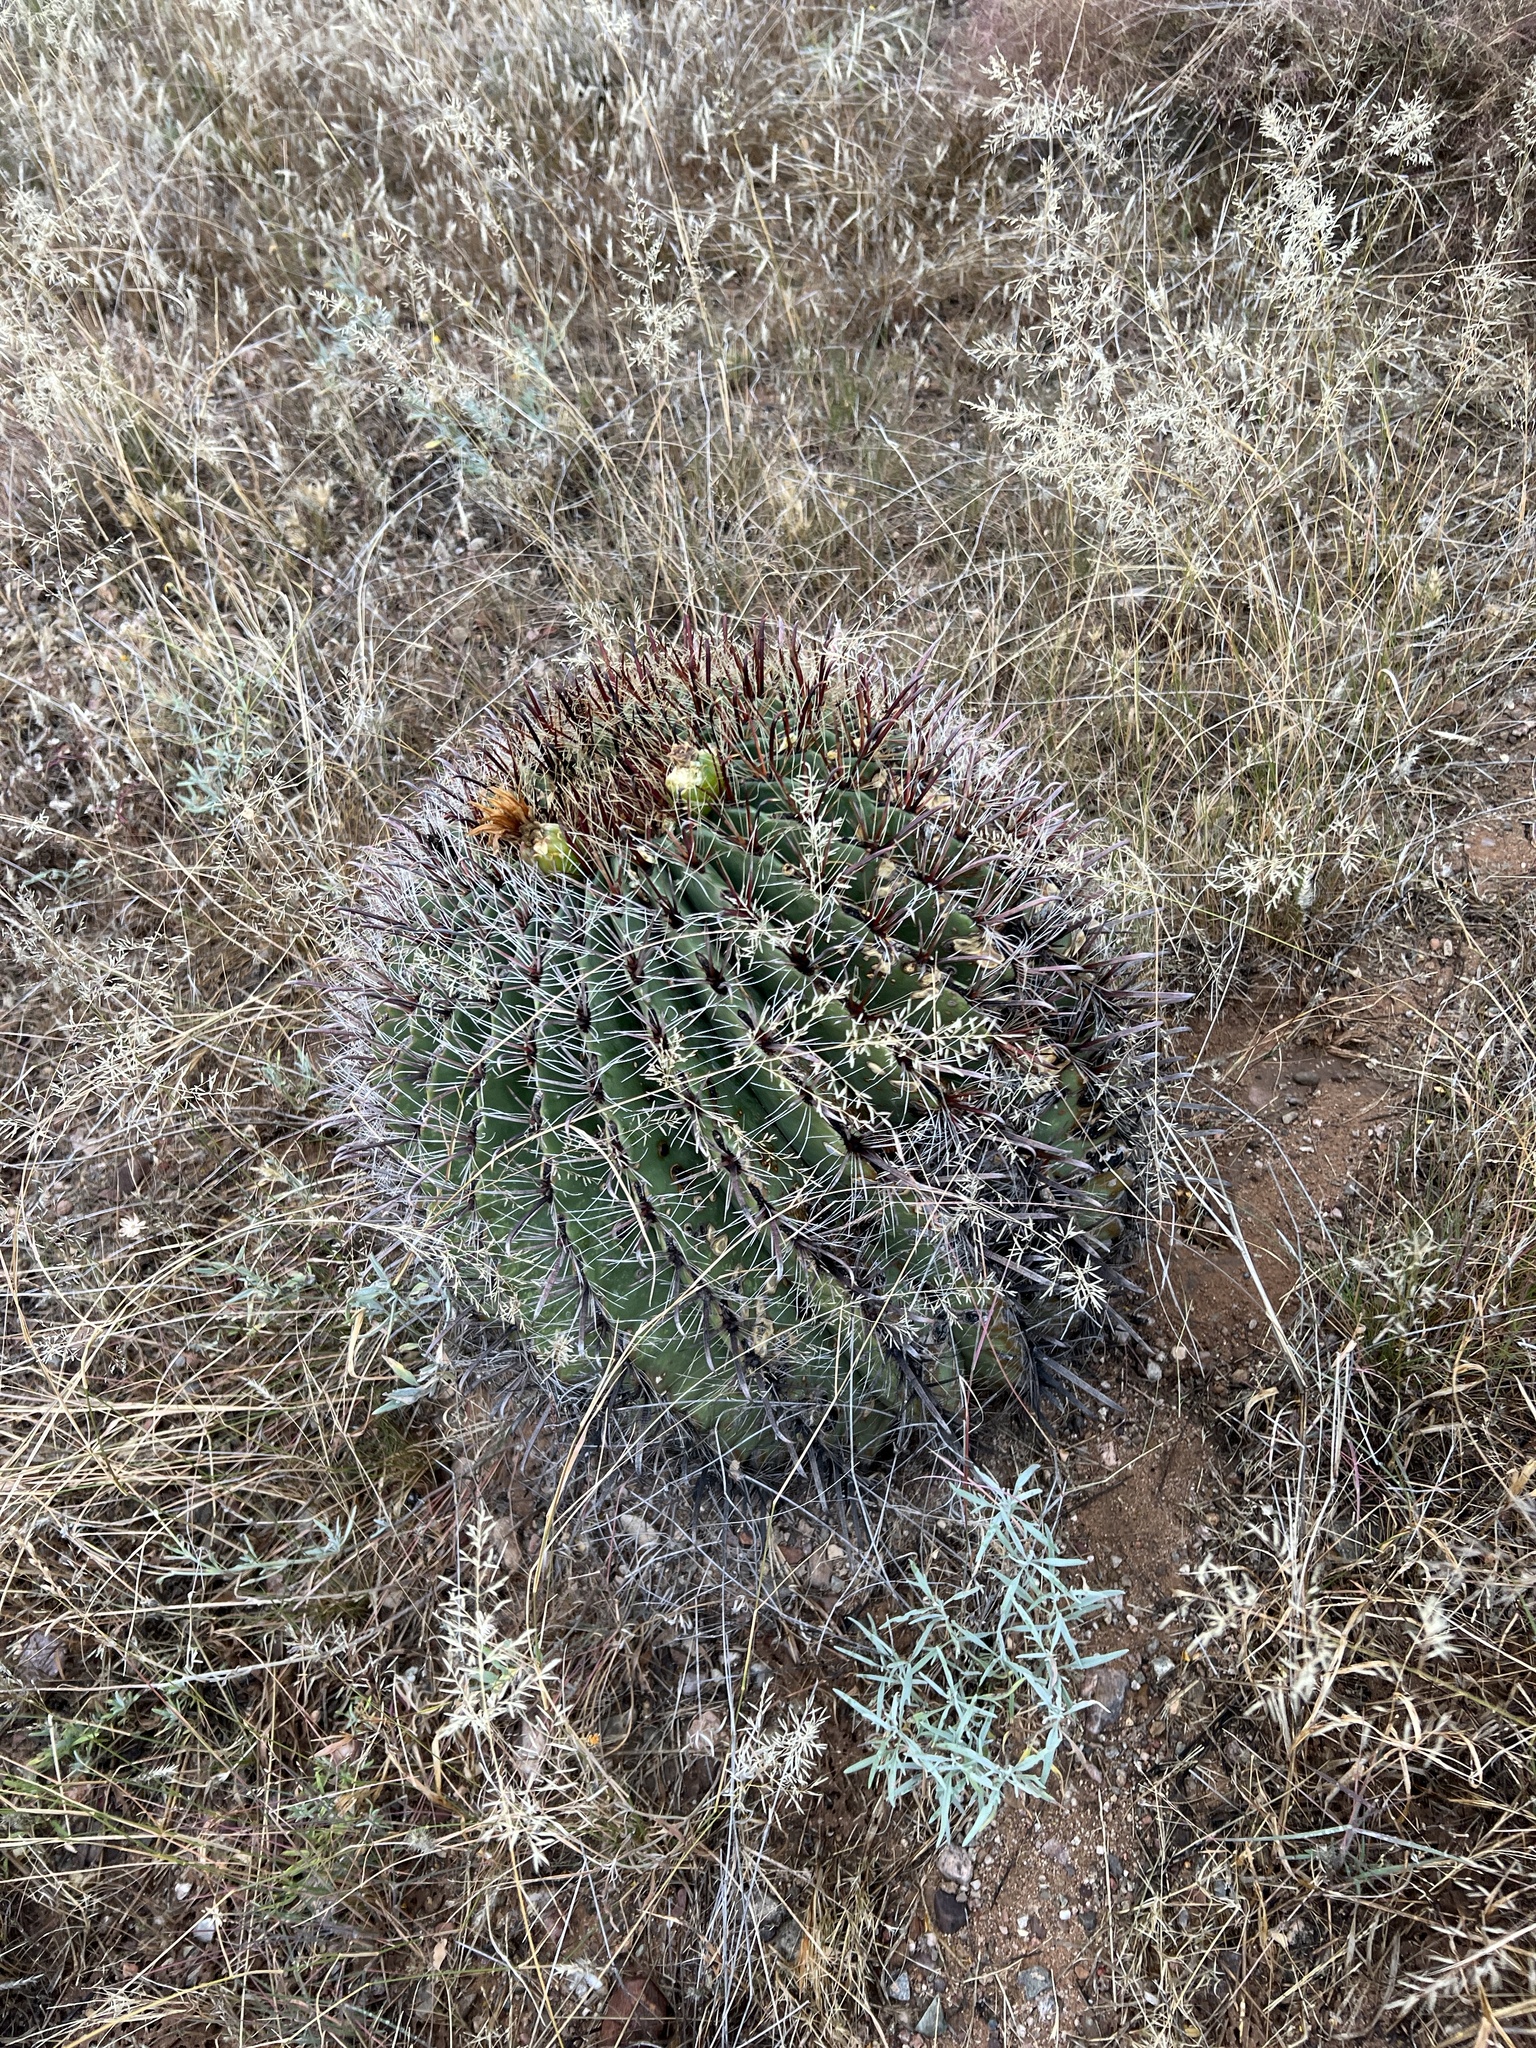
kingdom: Plantae
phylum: Tracheophyta
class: Magnoliopsida
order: Caryophyllales
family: Cactaceae
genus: Ferocactus
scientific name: Ferocactus wislizeni
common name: Candy barrel cactus
